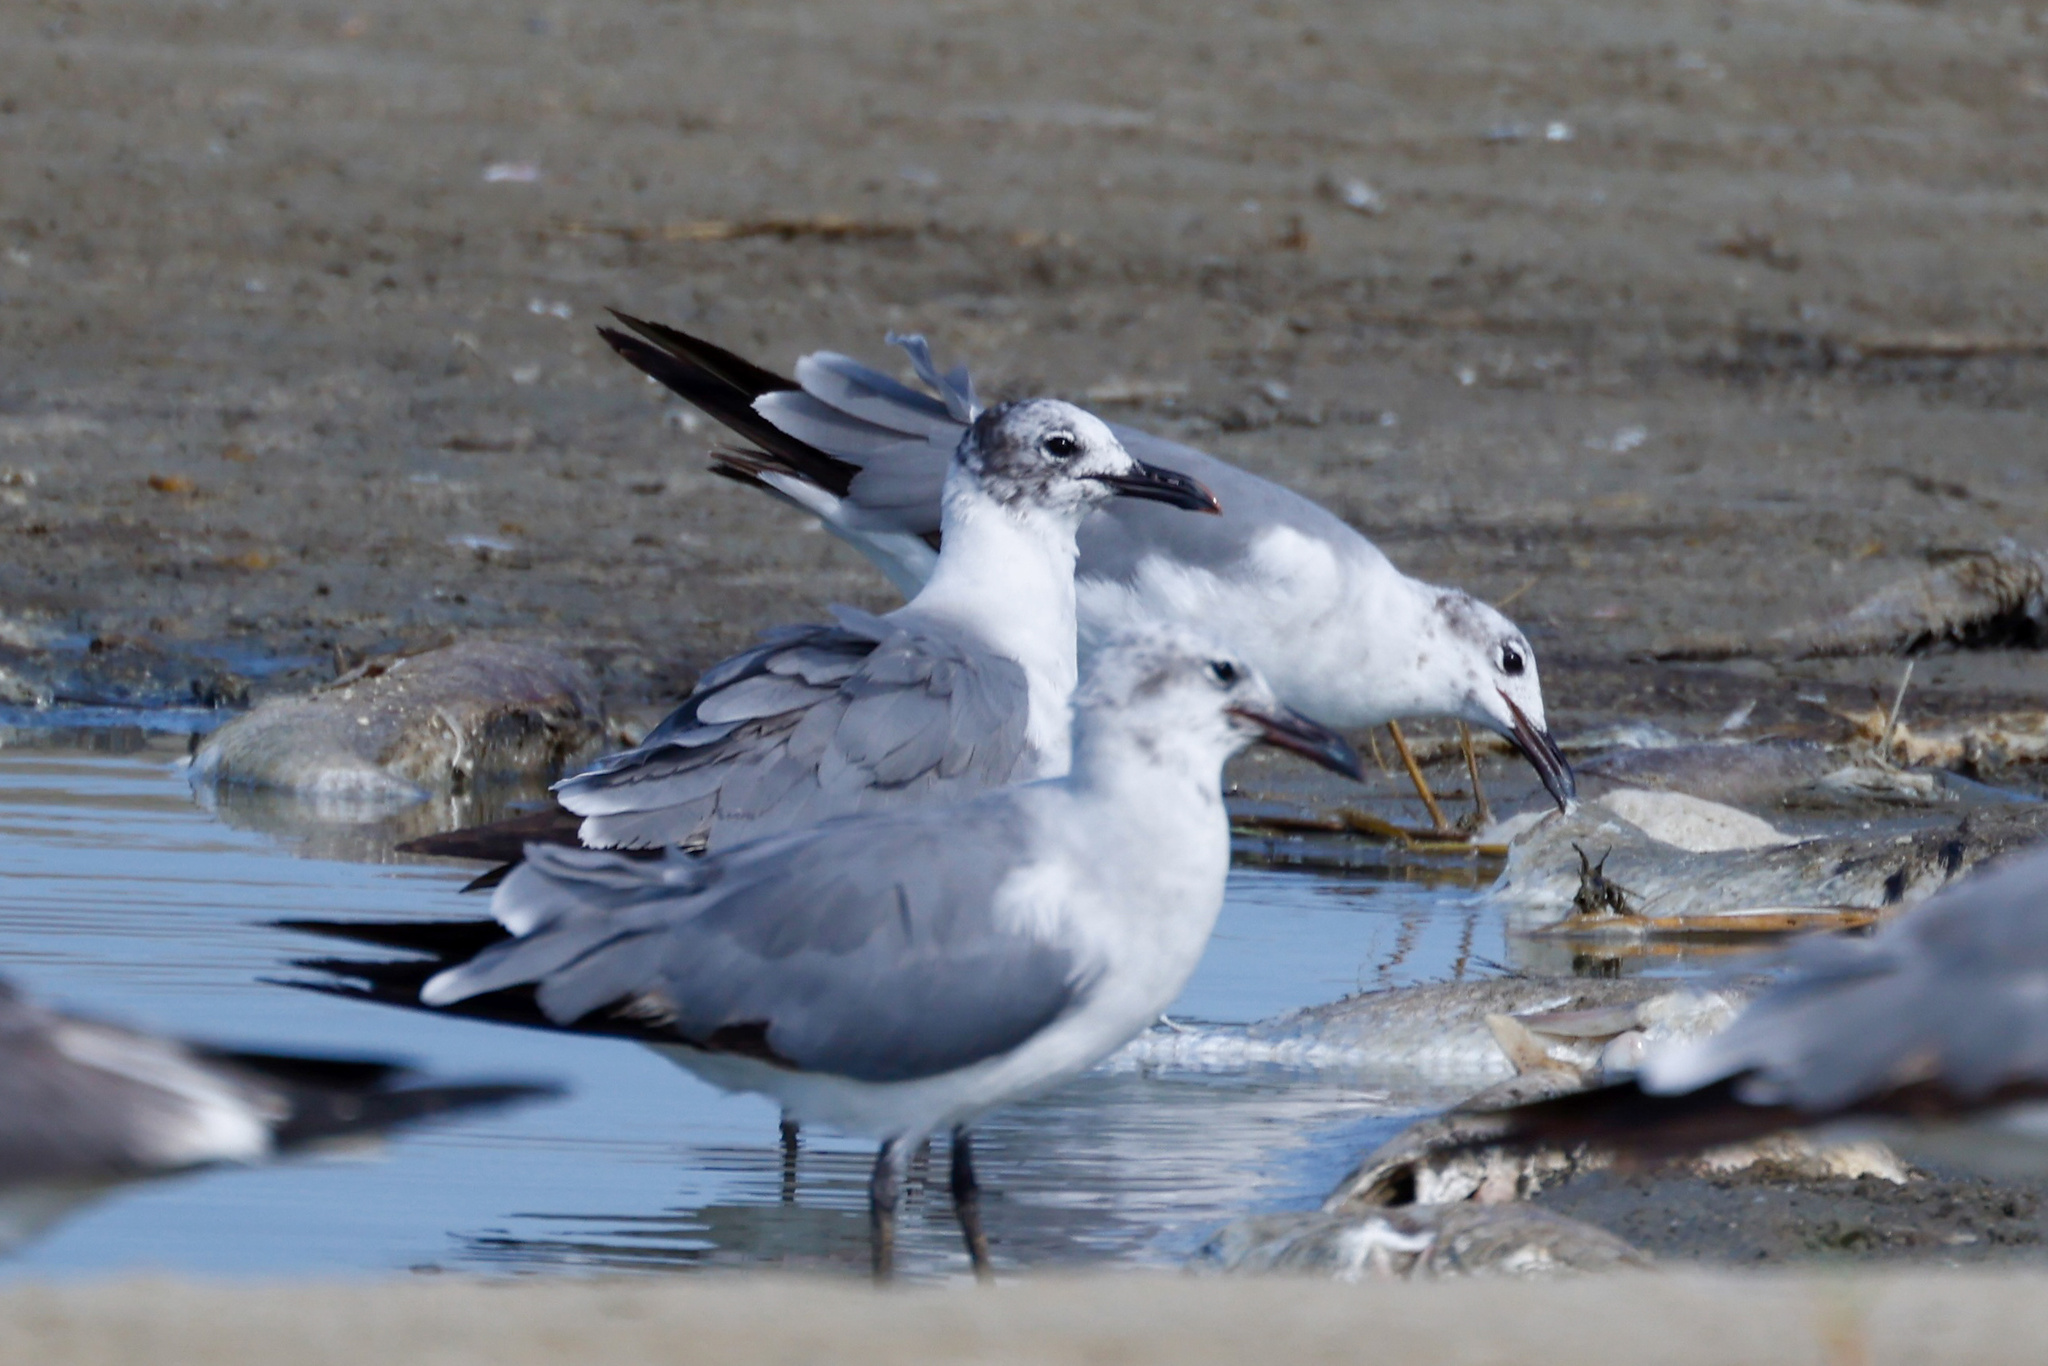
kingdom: Animalia
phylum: Chordata
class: Aves
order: Charadriiformes
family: Laridae
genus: Leucophaeus
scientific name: Leucophaeus atricilla
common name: Laughing gull
